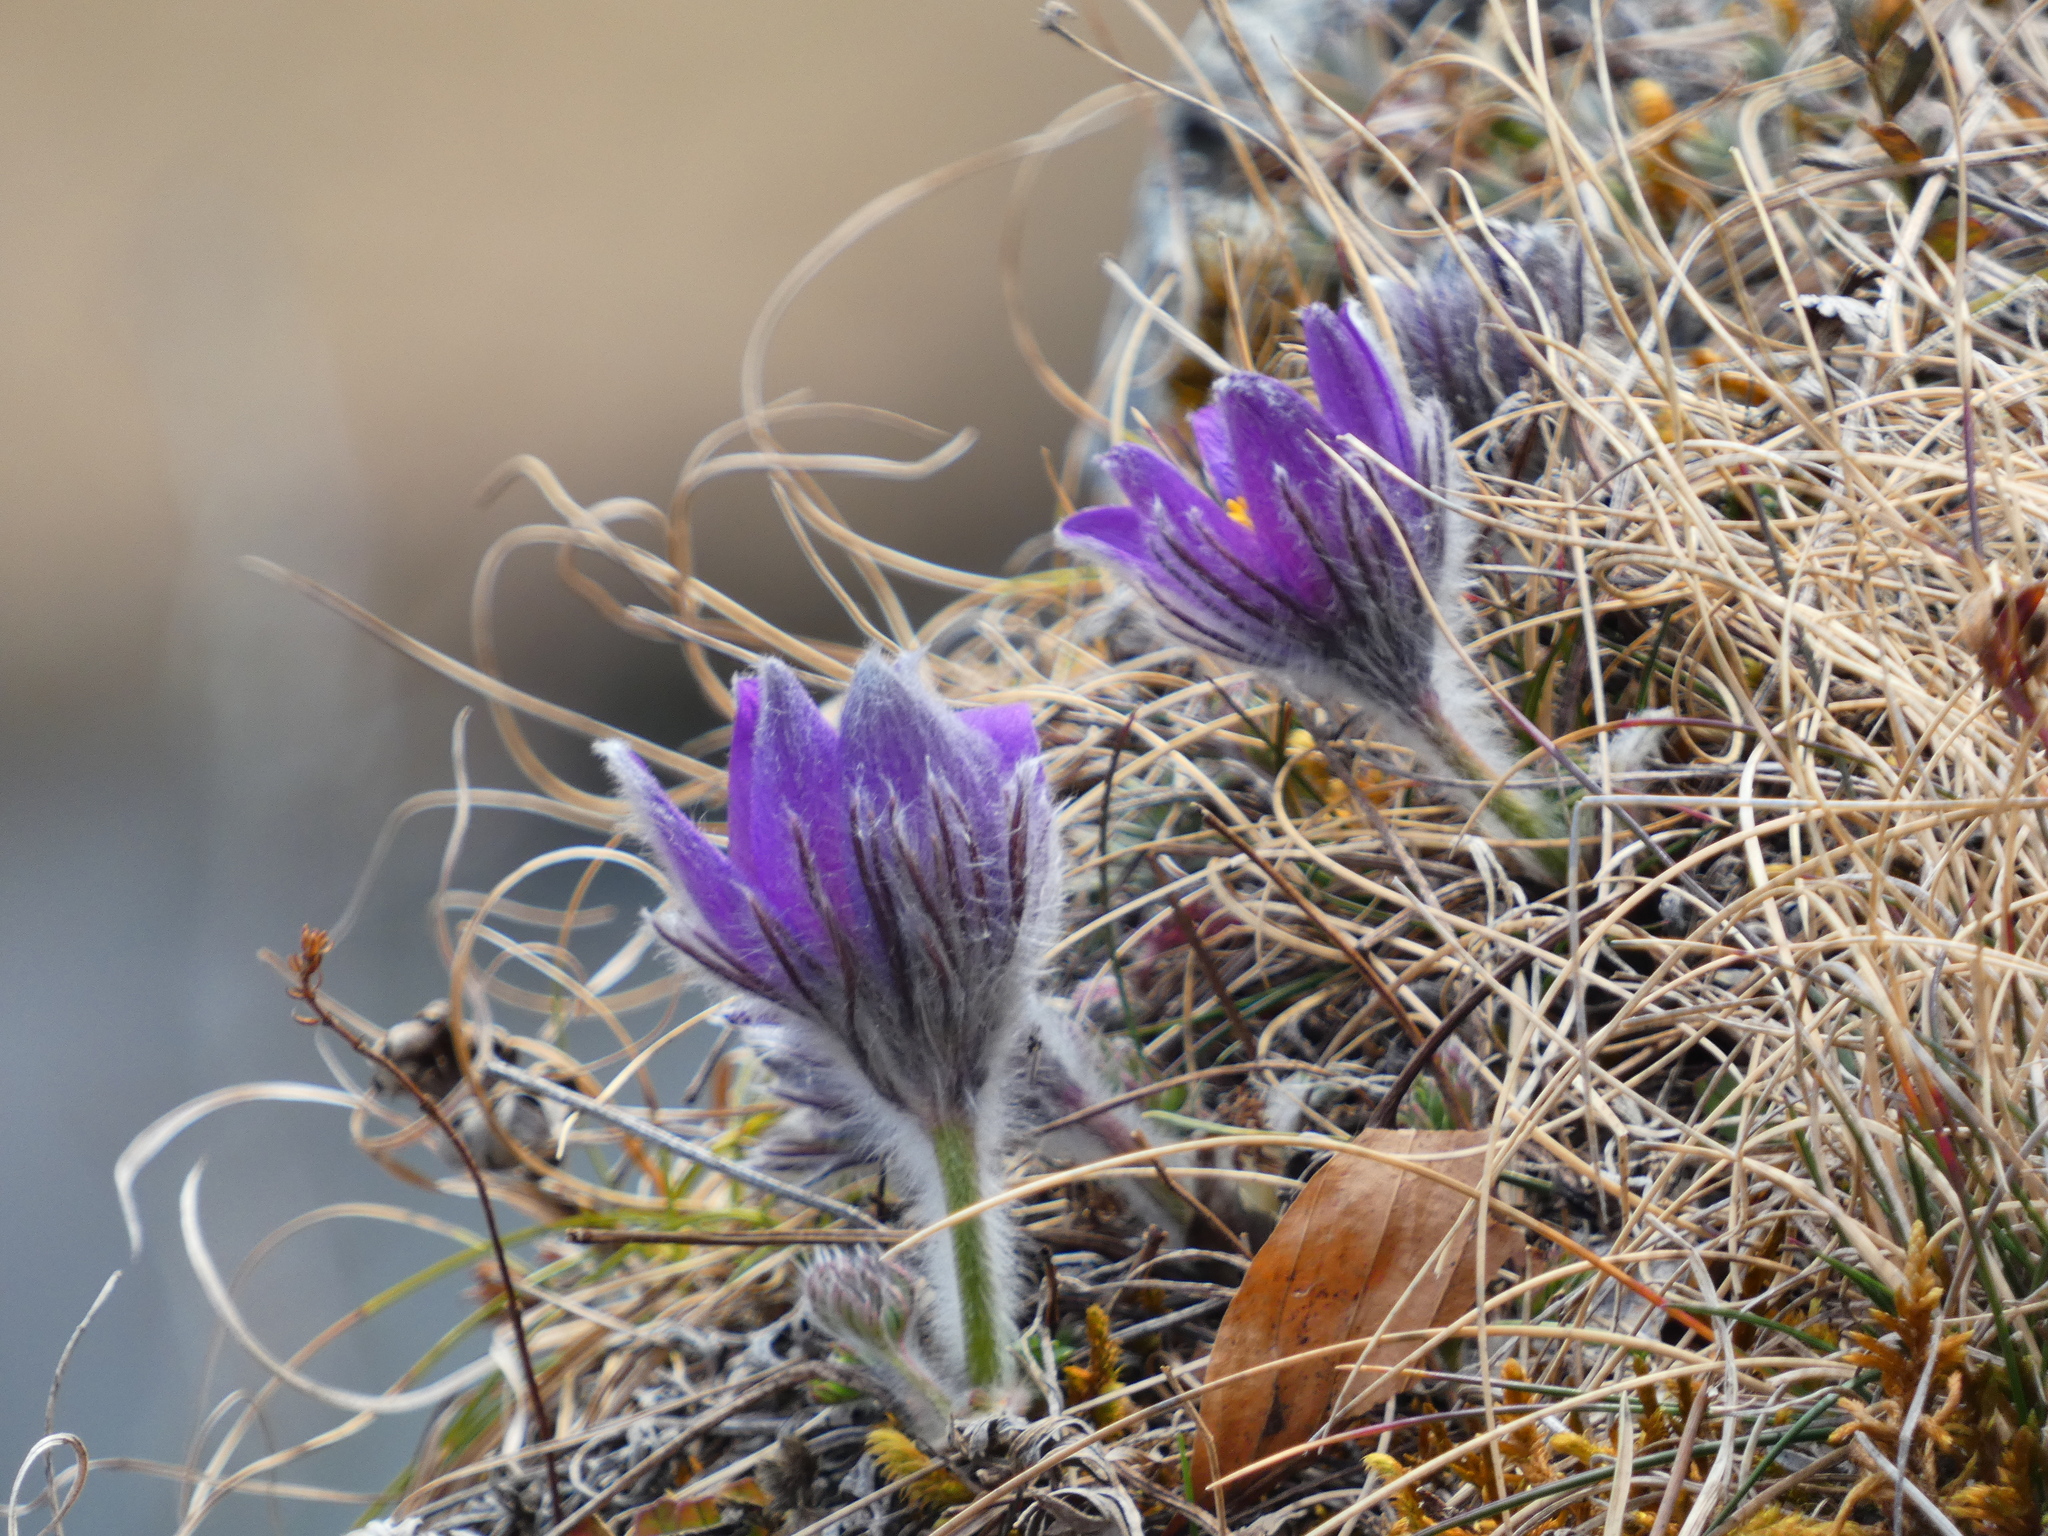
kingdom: Plantae
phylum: Tracheophyta
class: Magnoliopsida
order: Ranunculales
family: Ranunculaceae
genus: Pulsatilla
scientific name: Pulsatilla vulgaris
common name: Pasqueflower
